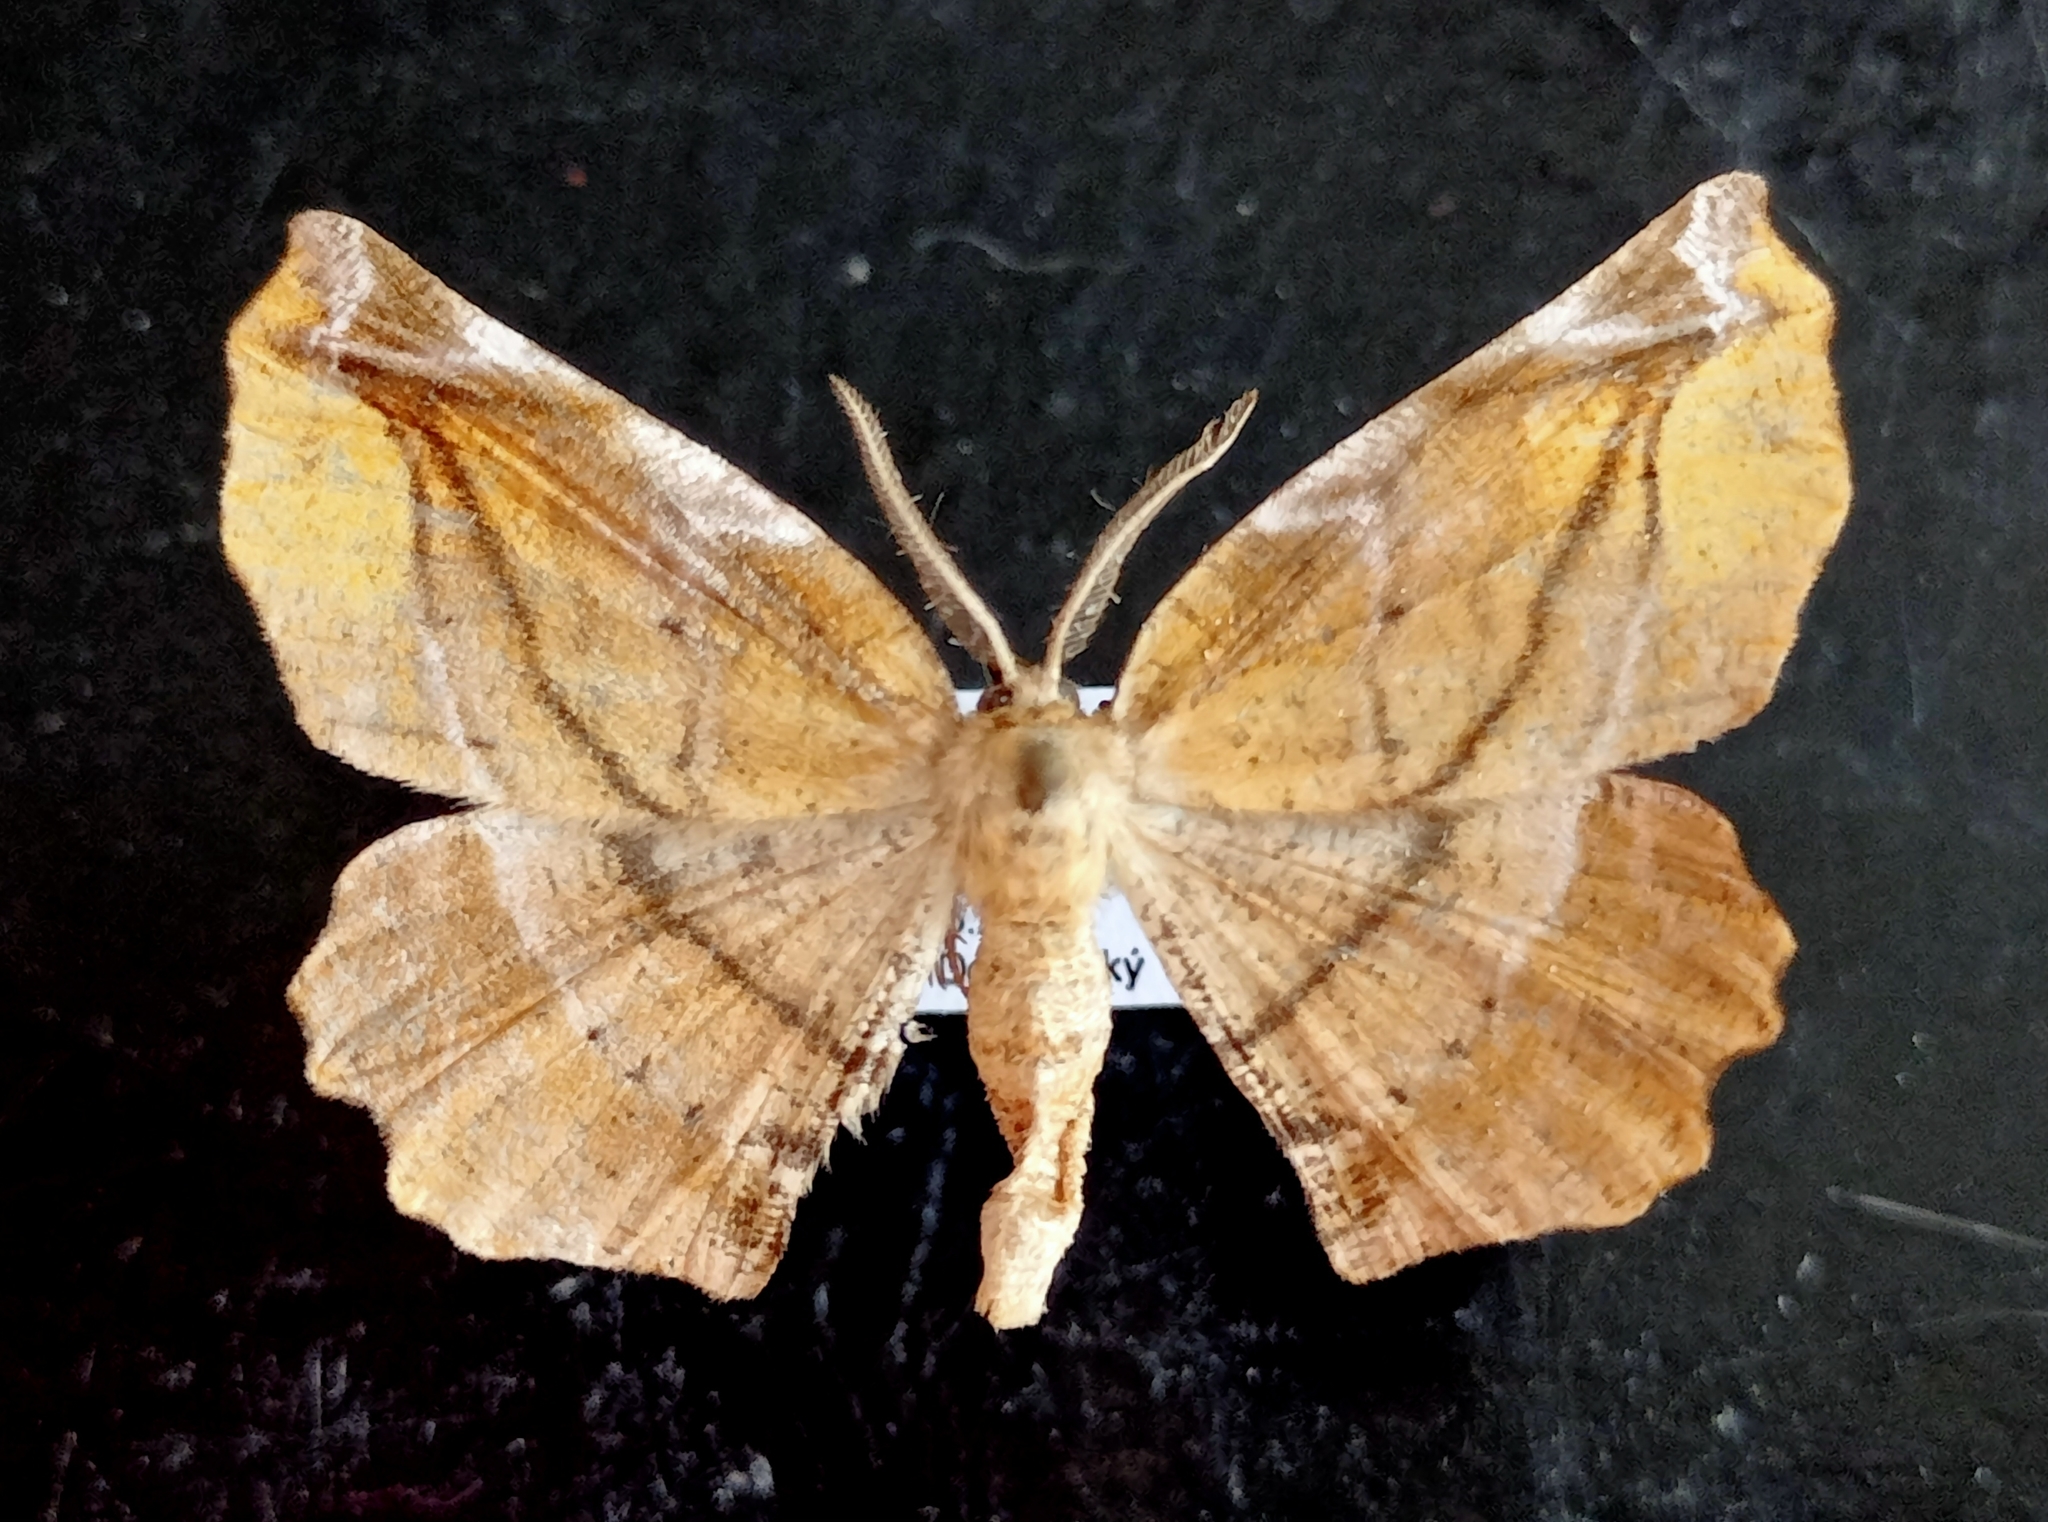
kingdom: Animalia
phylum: Arthropoda
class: Insecta
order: Lepidoptera
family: Geometridae
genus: Apeira
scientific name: Apeira syringaria
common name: Lilac beauty
